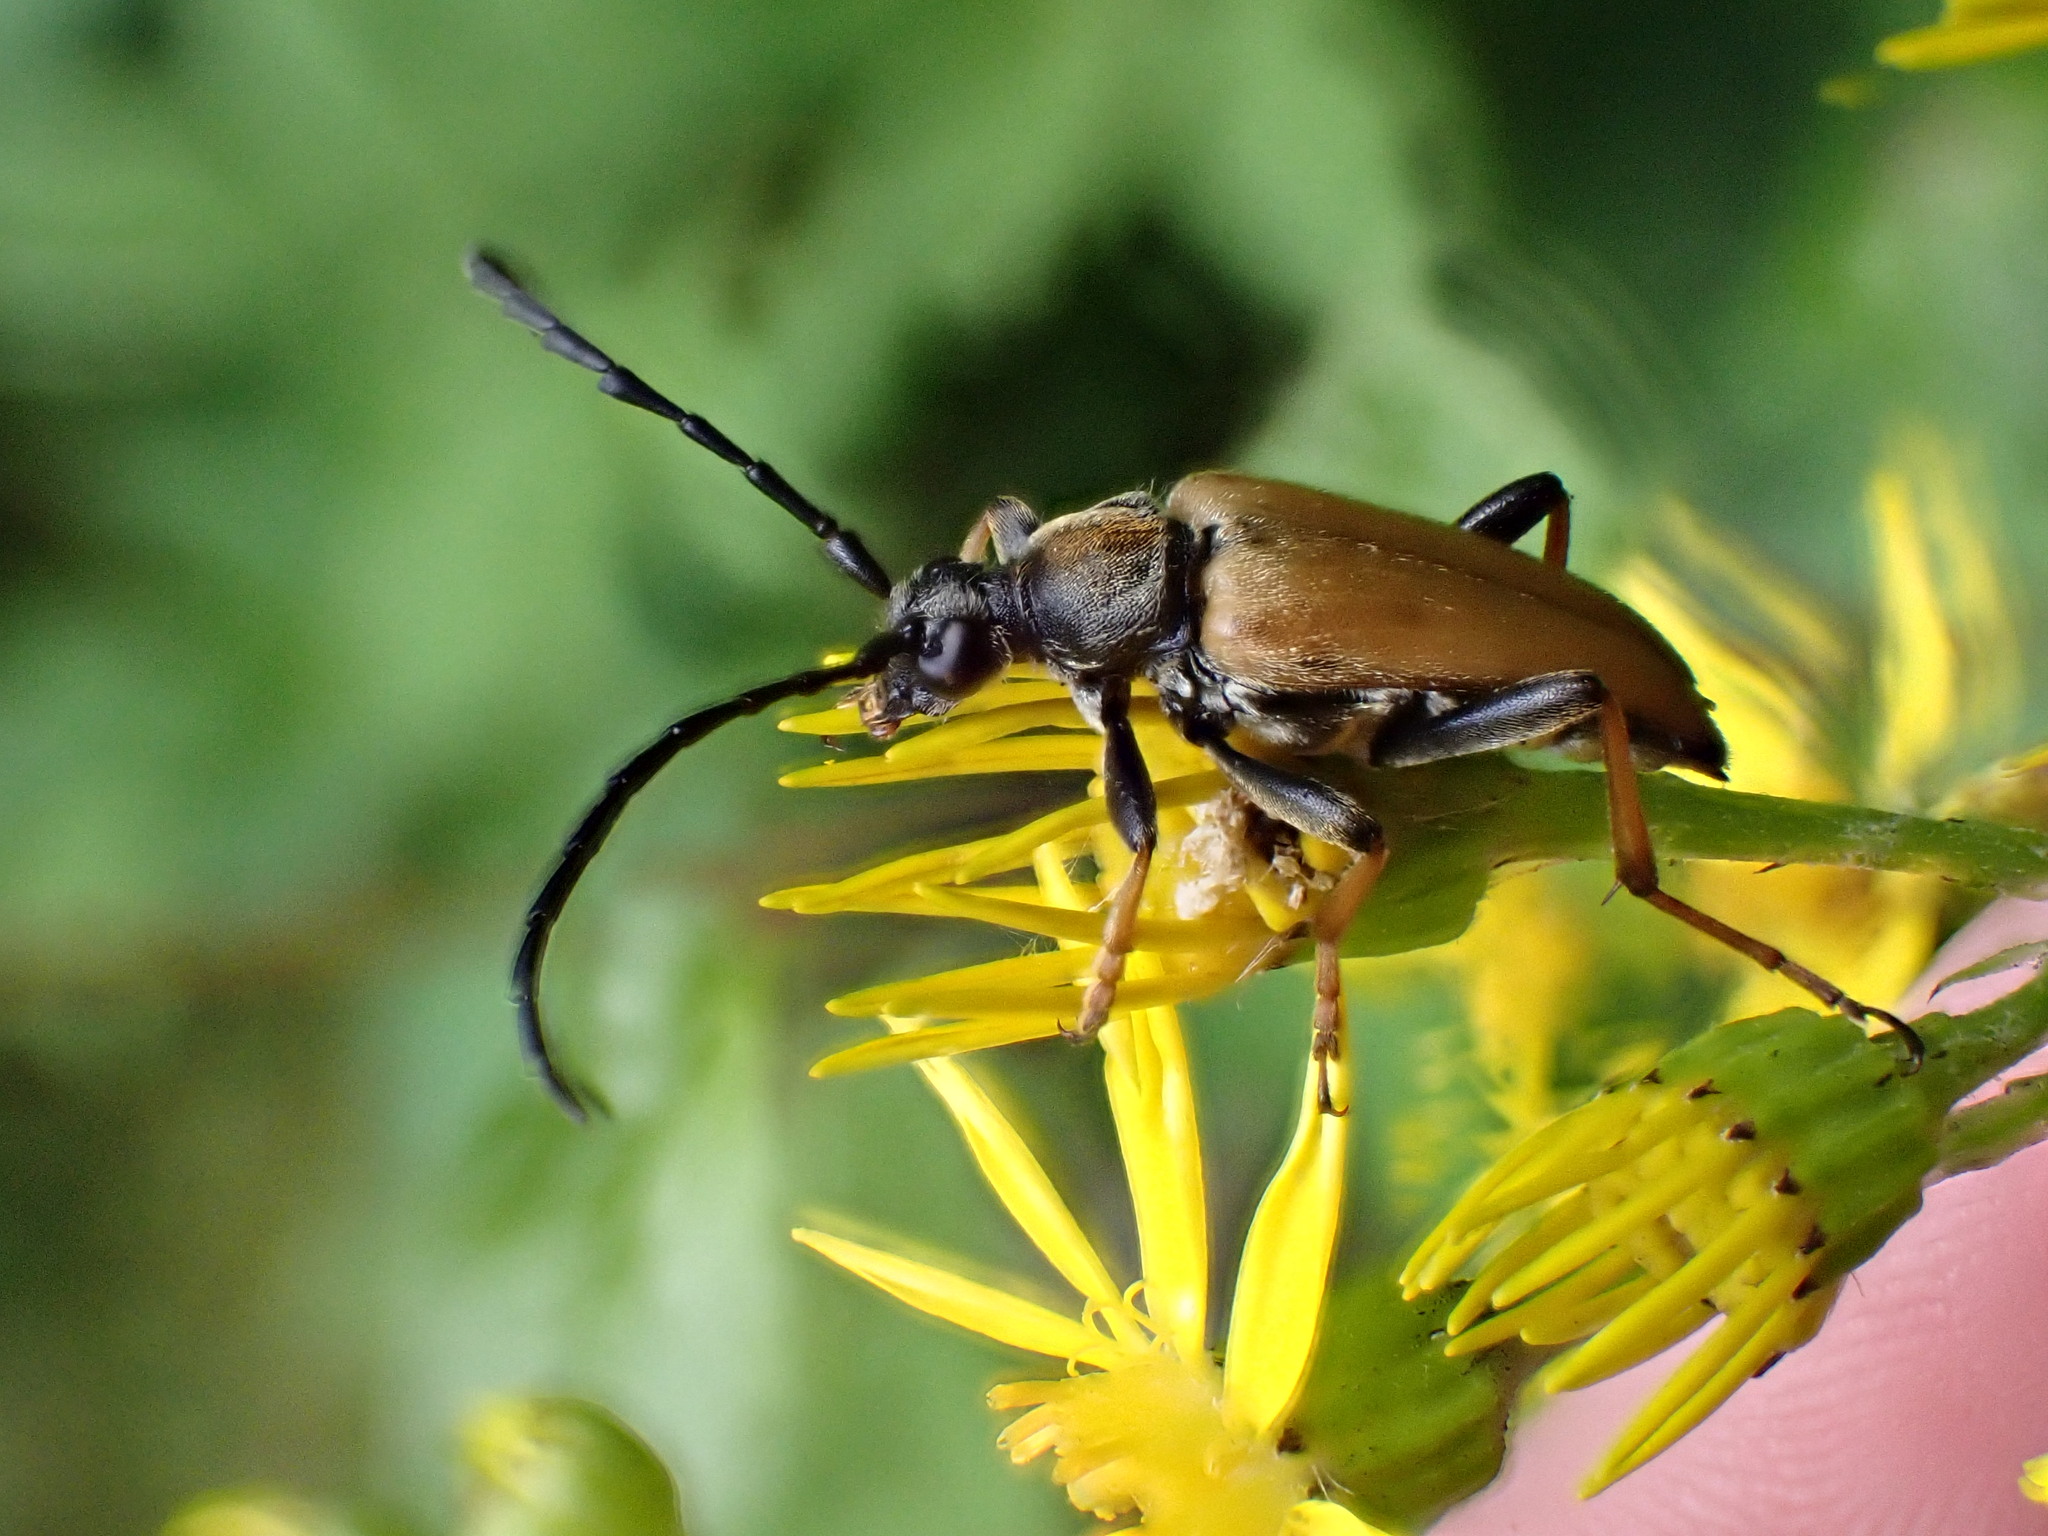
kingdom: Animalia
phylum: Arthropoda
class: Insecta
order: Coleoptera
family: Cerambycidae
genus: Stictoleptura
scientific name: Stictoleptura rubra
